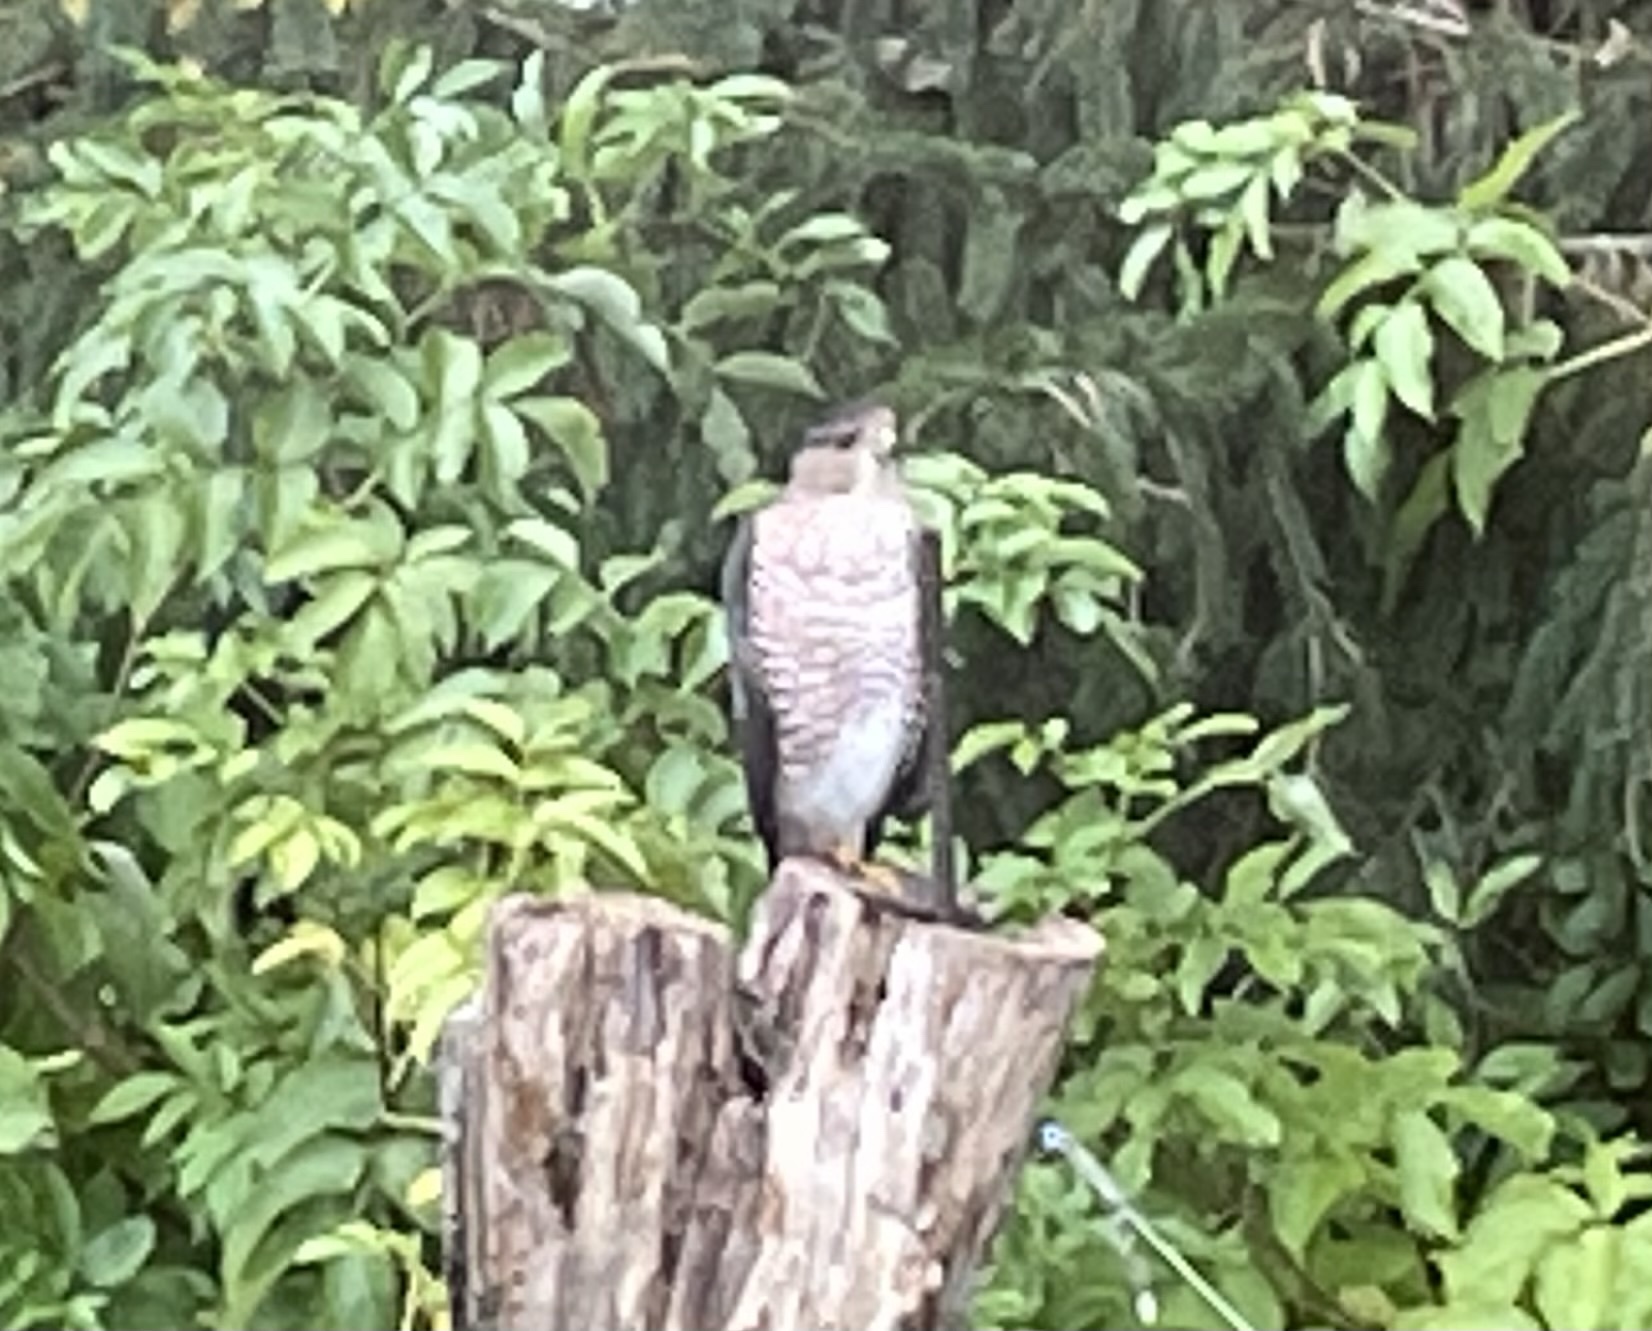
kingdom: Animalia
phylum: Chordata
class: Aves
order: Accipitriformes
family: Accipitridae
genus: Accipiter
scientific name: Accipiter cooperii
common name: Cooper's hawk
